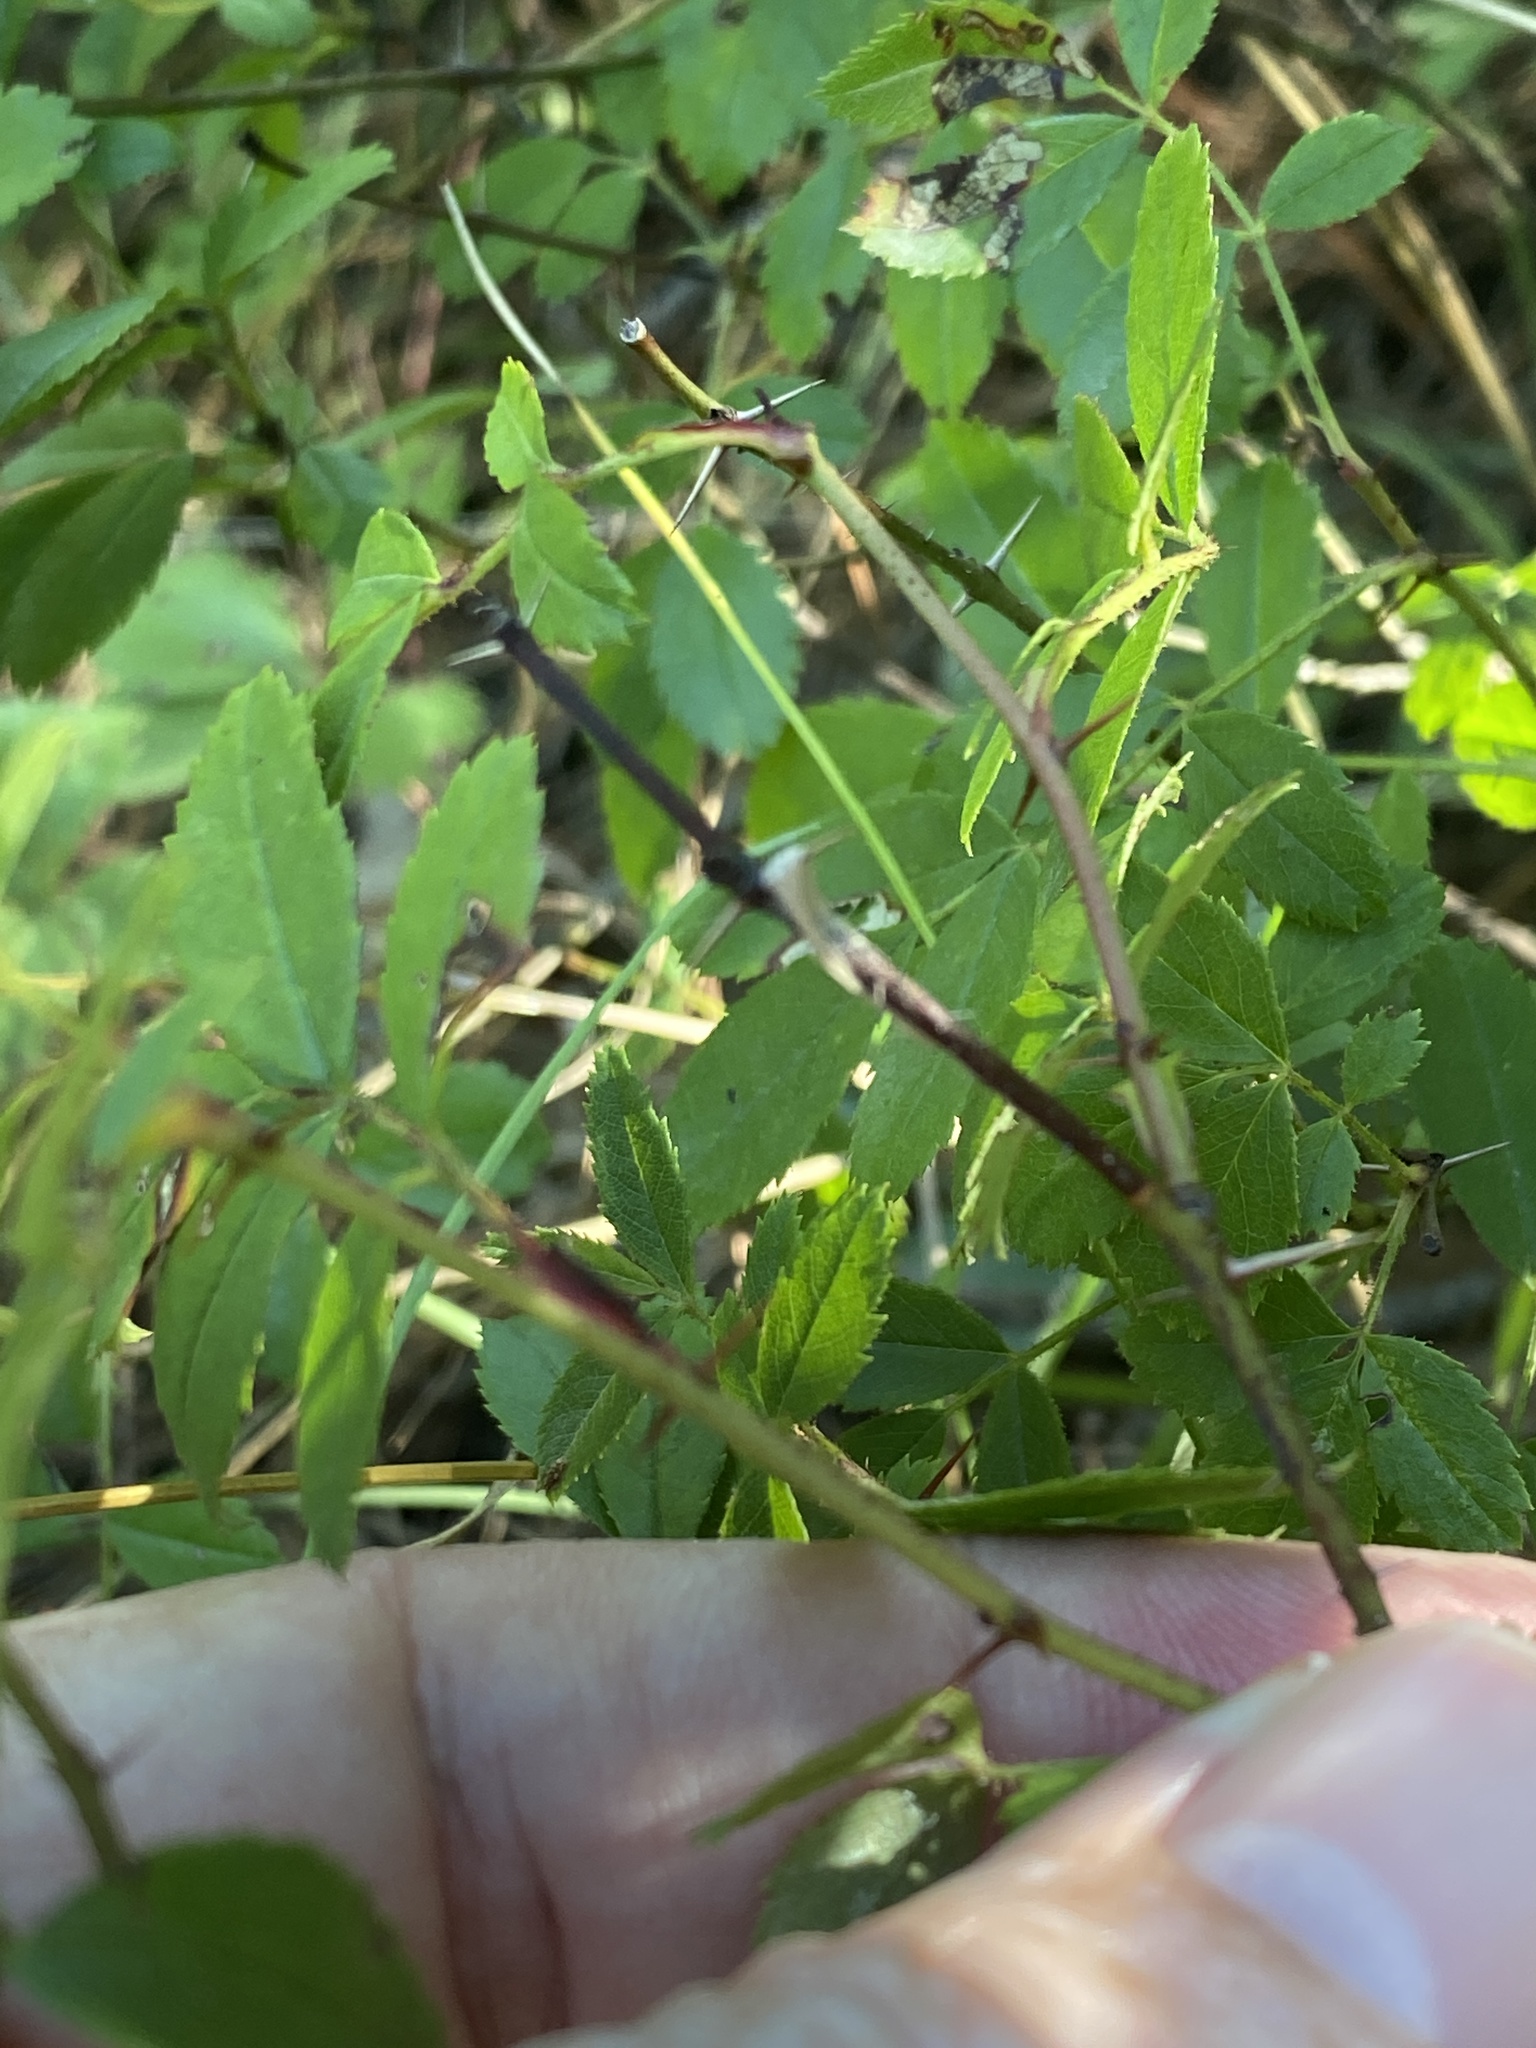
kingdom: Plantae
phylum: Tracheophyta
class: Magnoliopsida
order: Rosales
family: Rosaceae
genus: Rosa
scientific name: Rosa carolina
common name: Pasture rose
